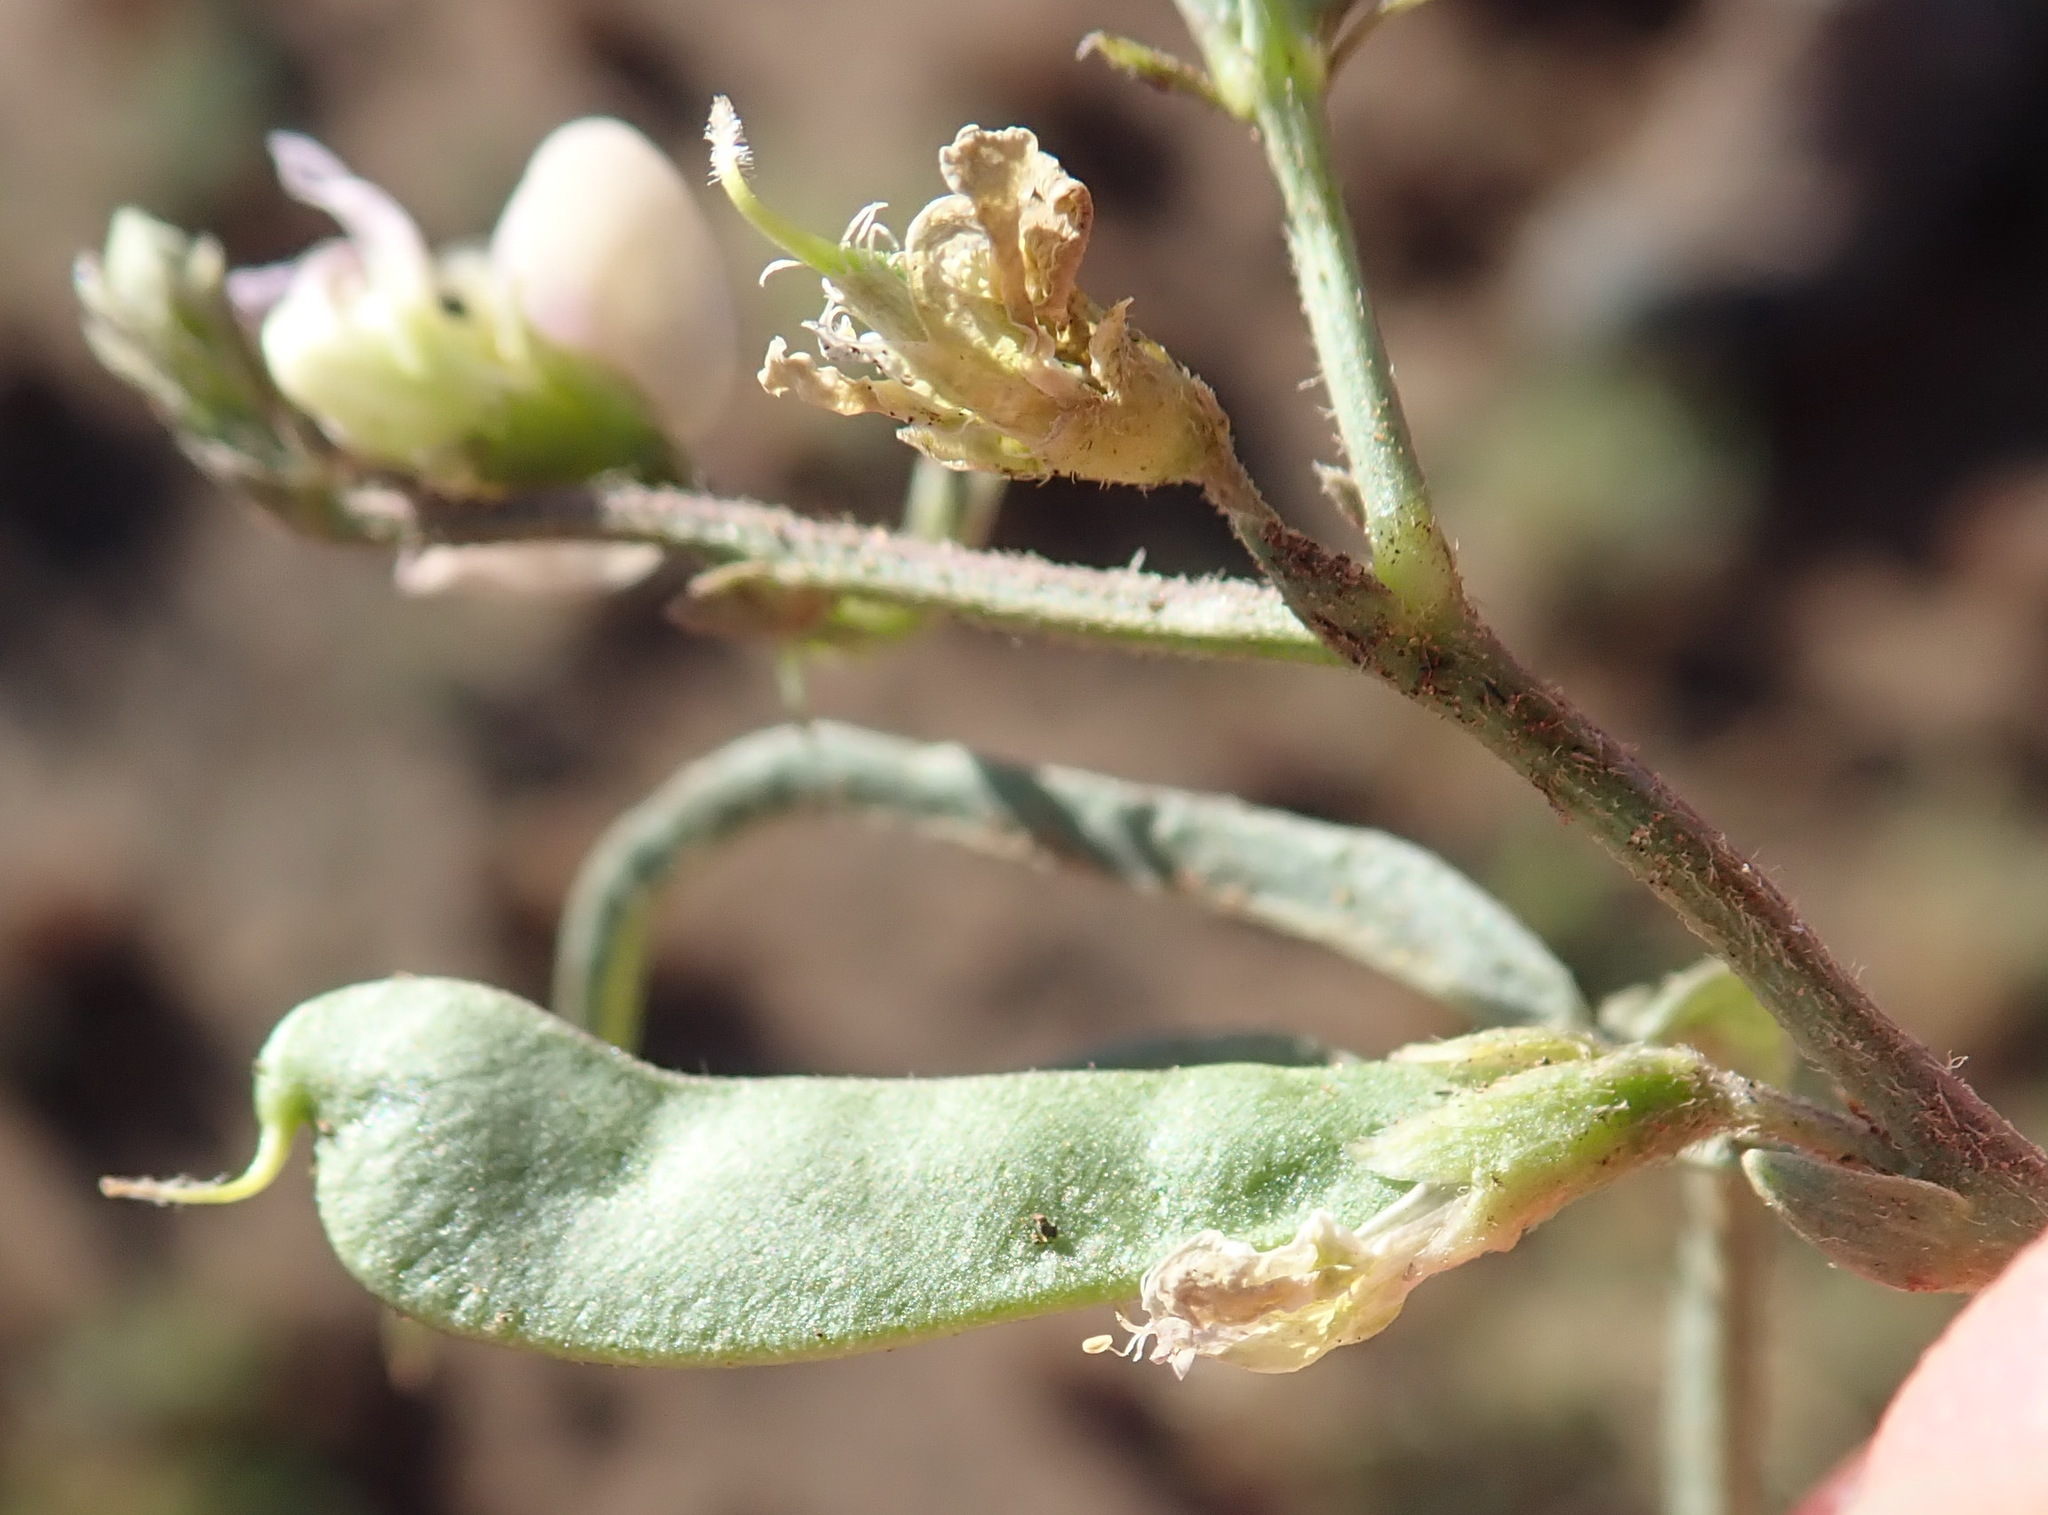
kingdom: Plantae
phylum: Tracheophyta
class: Magnoliopsida
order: Fabales
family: Fabaceae
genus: Sphenostylis
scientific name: Sphenostylis angustifolia
